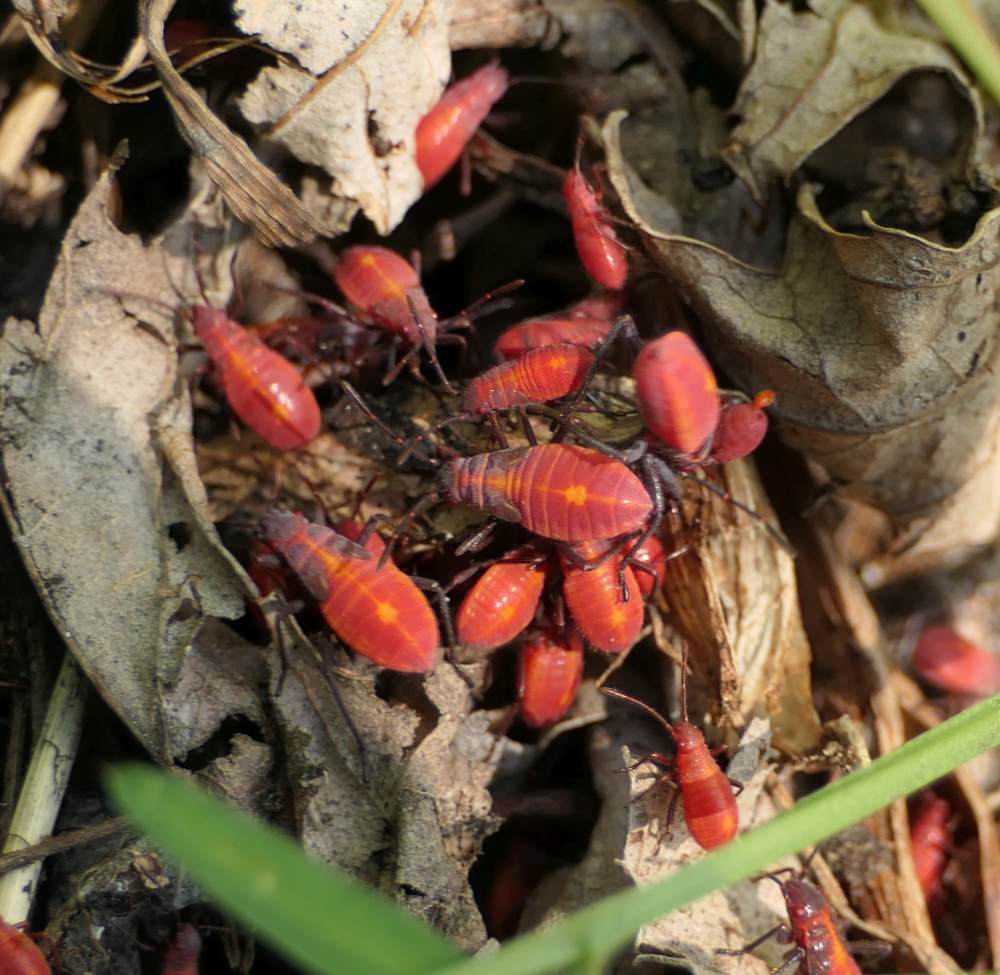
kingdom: Animalia
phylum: Arthropoda
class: Insecta
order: Hemiptera
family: Rhopalidae
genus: Boisea
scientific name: Boisea trivittata
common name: Boxelder bug
